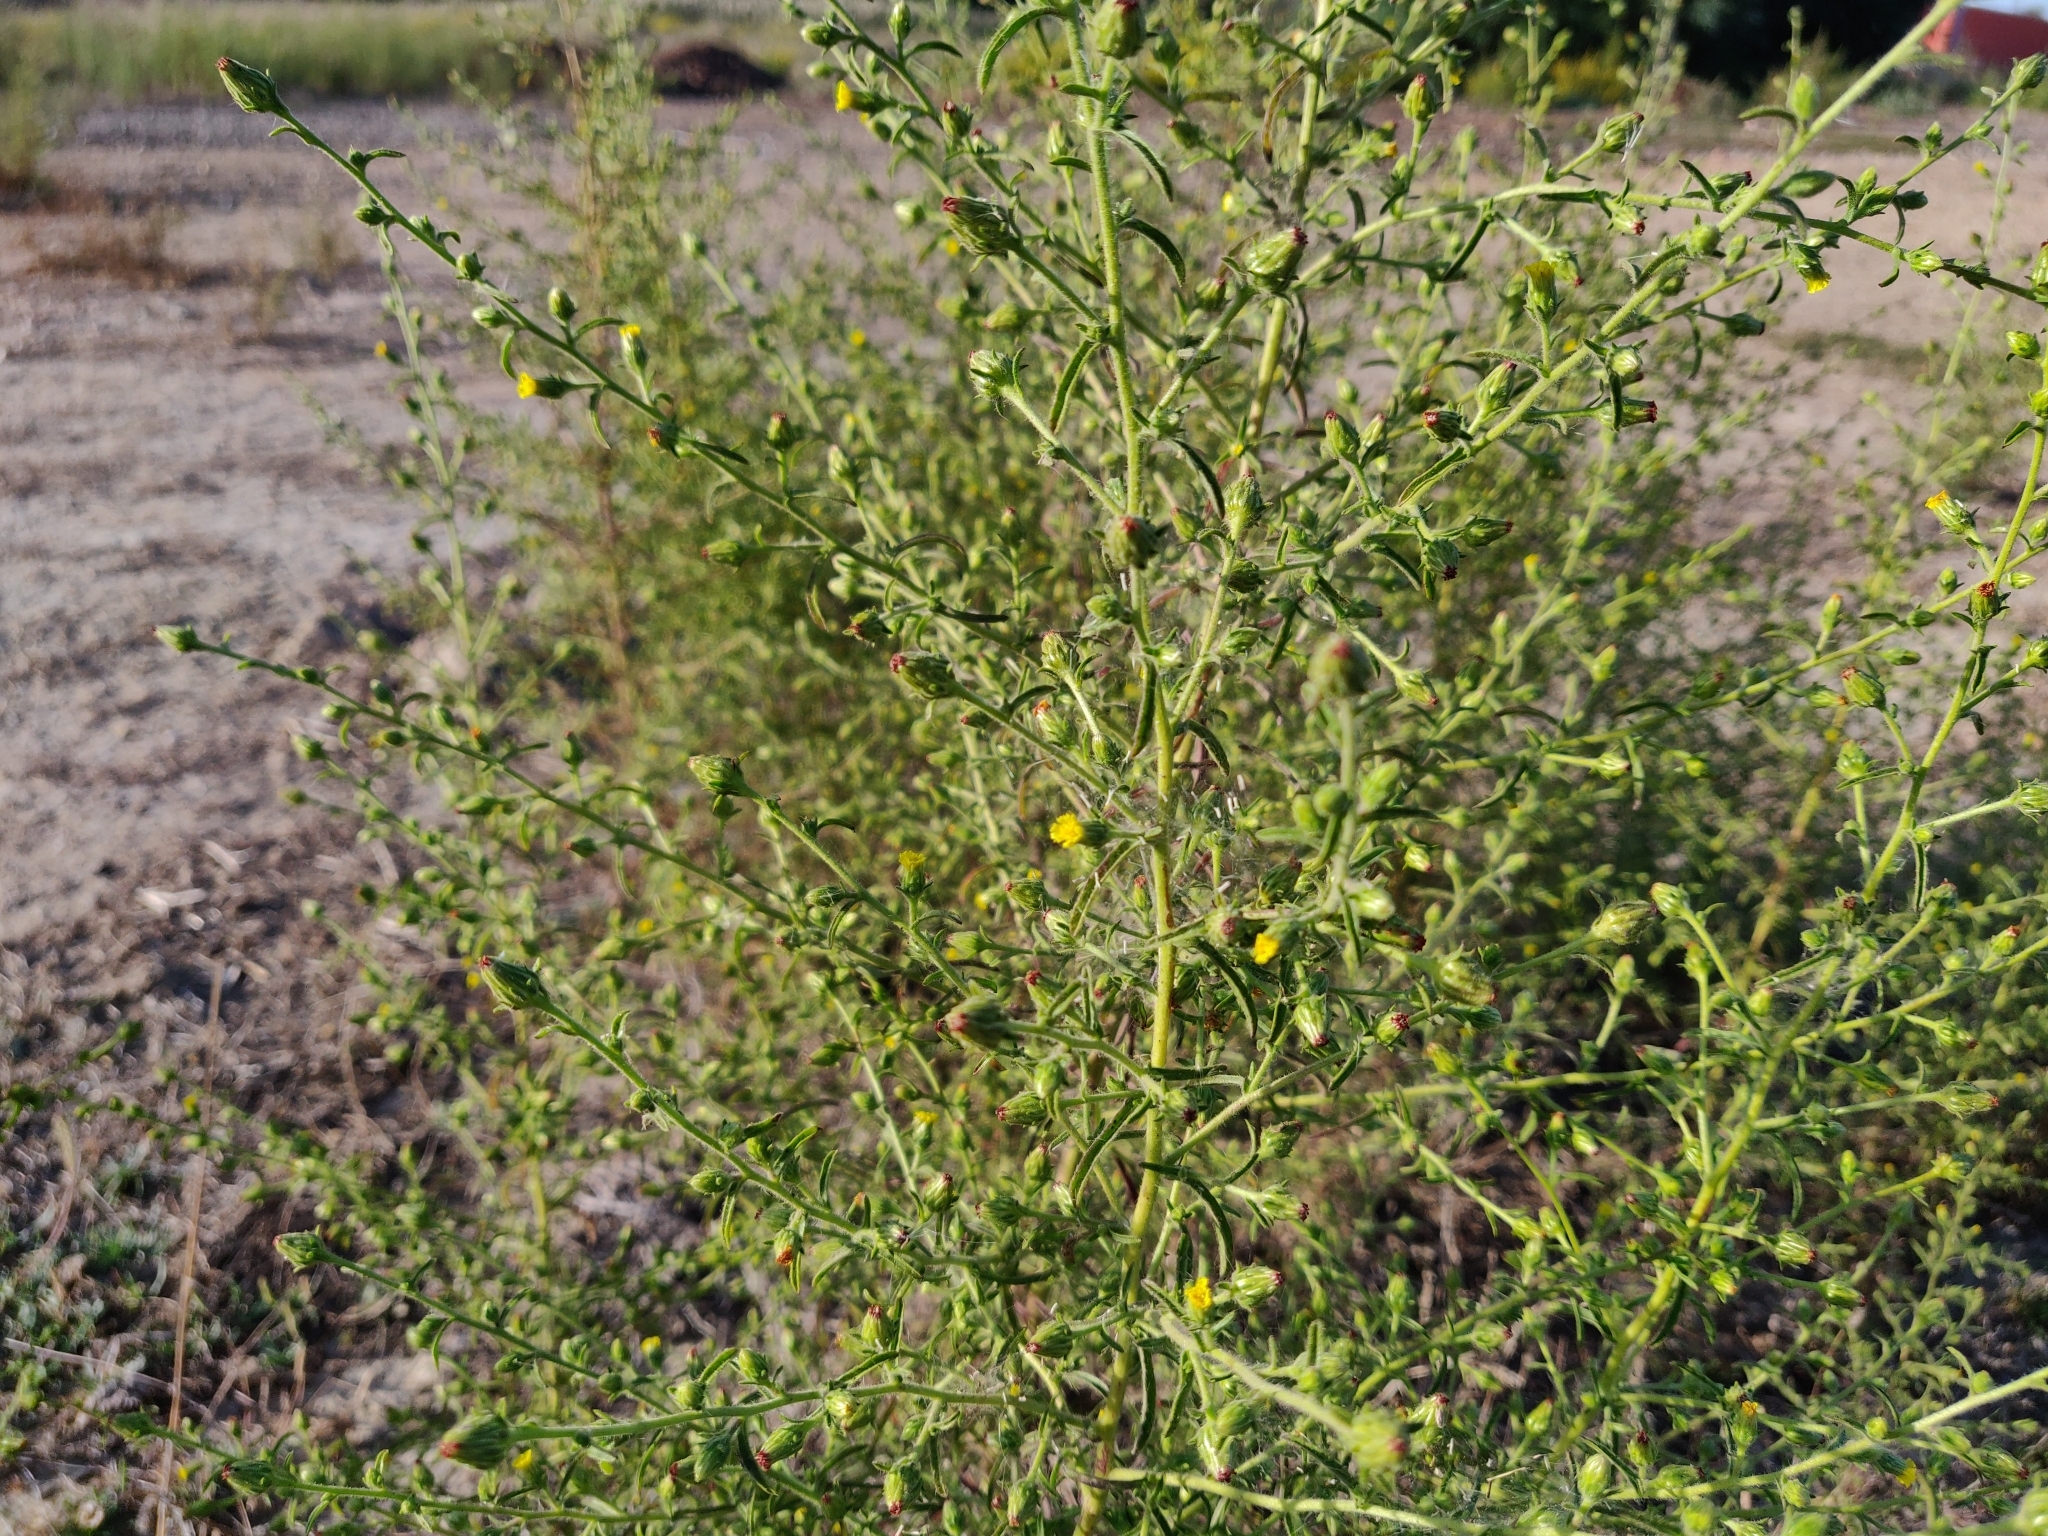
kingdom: Plantae
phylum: Tracheophyta
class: Magnoliopsida
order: Asterales
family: Asteraceae
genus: Dittrichia
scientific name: Dittrichia graveolens
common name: Stinking fleabane
